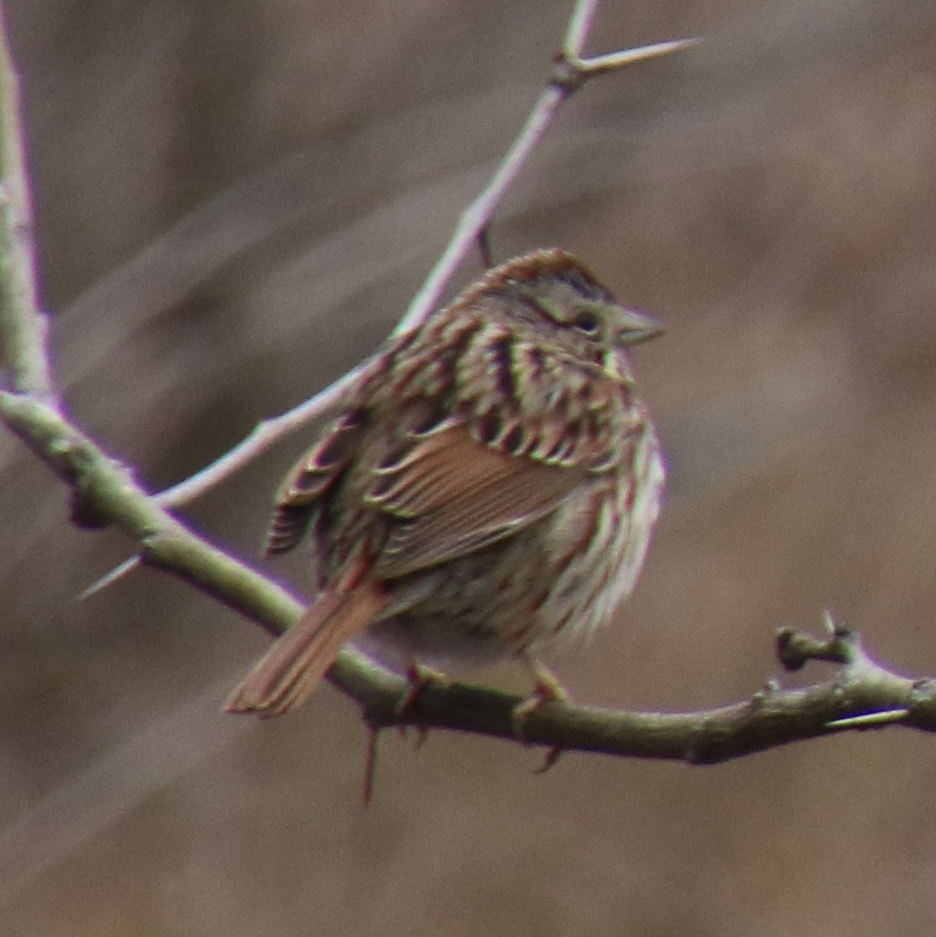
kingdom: Animalia
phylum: Chordata
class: Aves
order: Passeriformes
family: Passerellidae
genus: Melospiza
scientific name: Melospiza melodia
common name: Song sparrow
